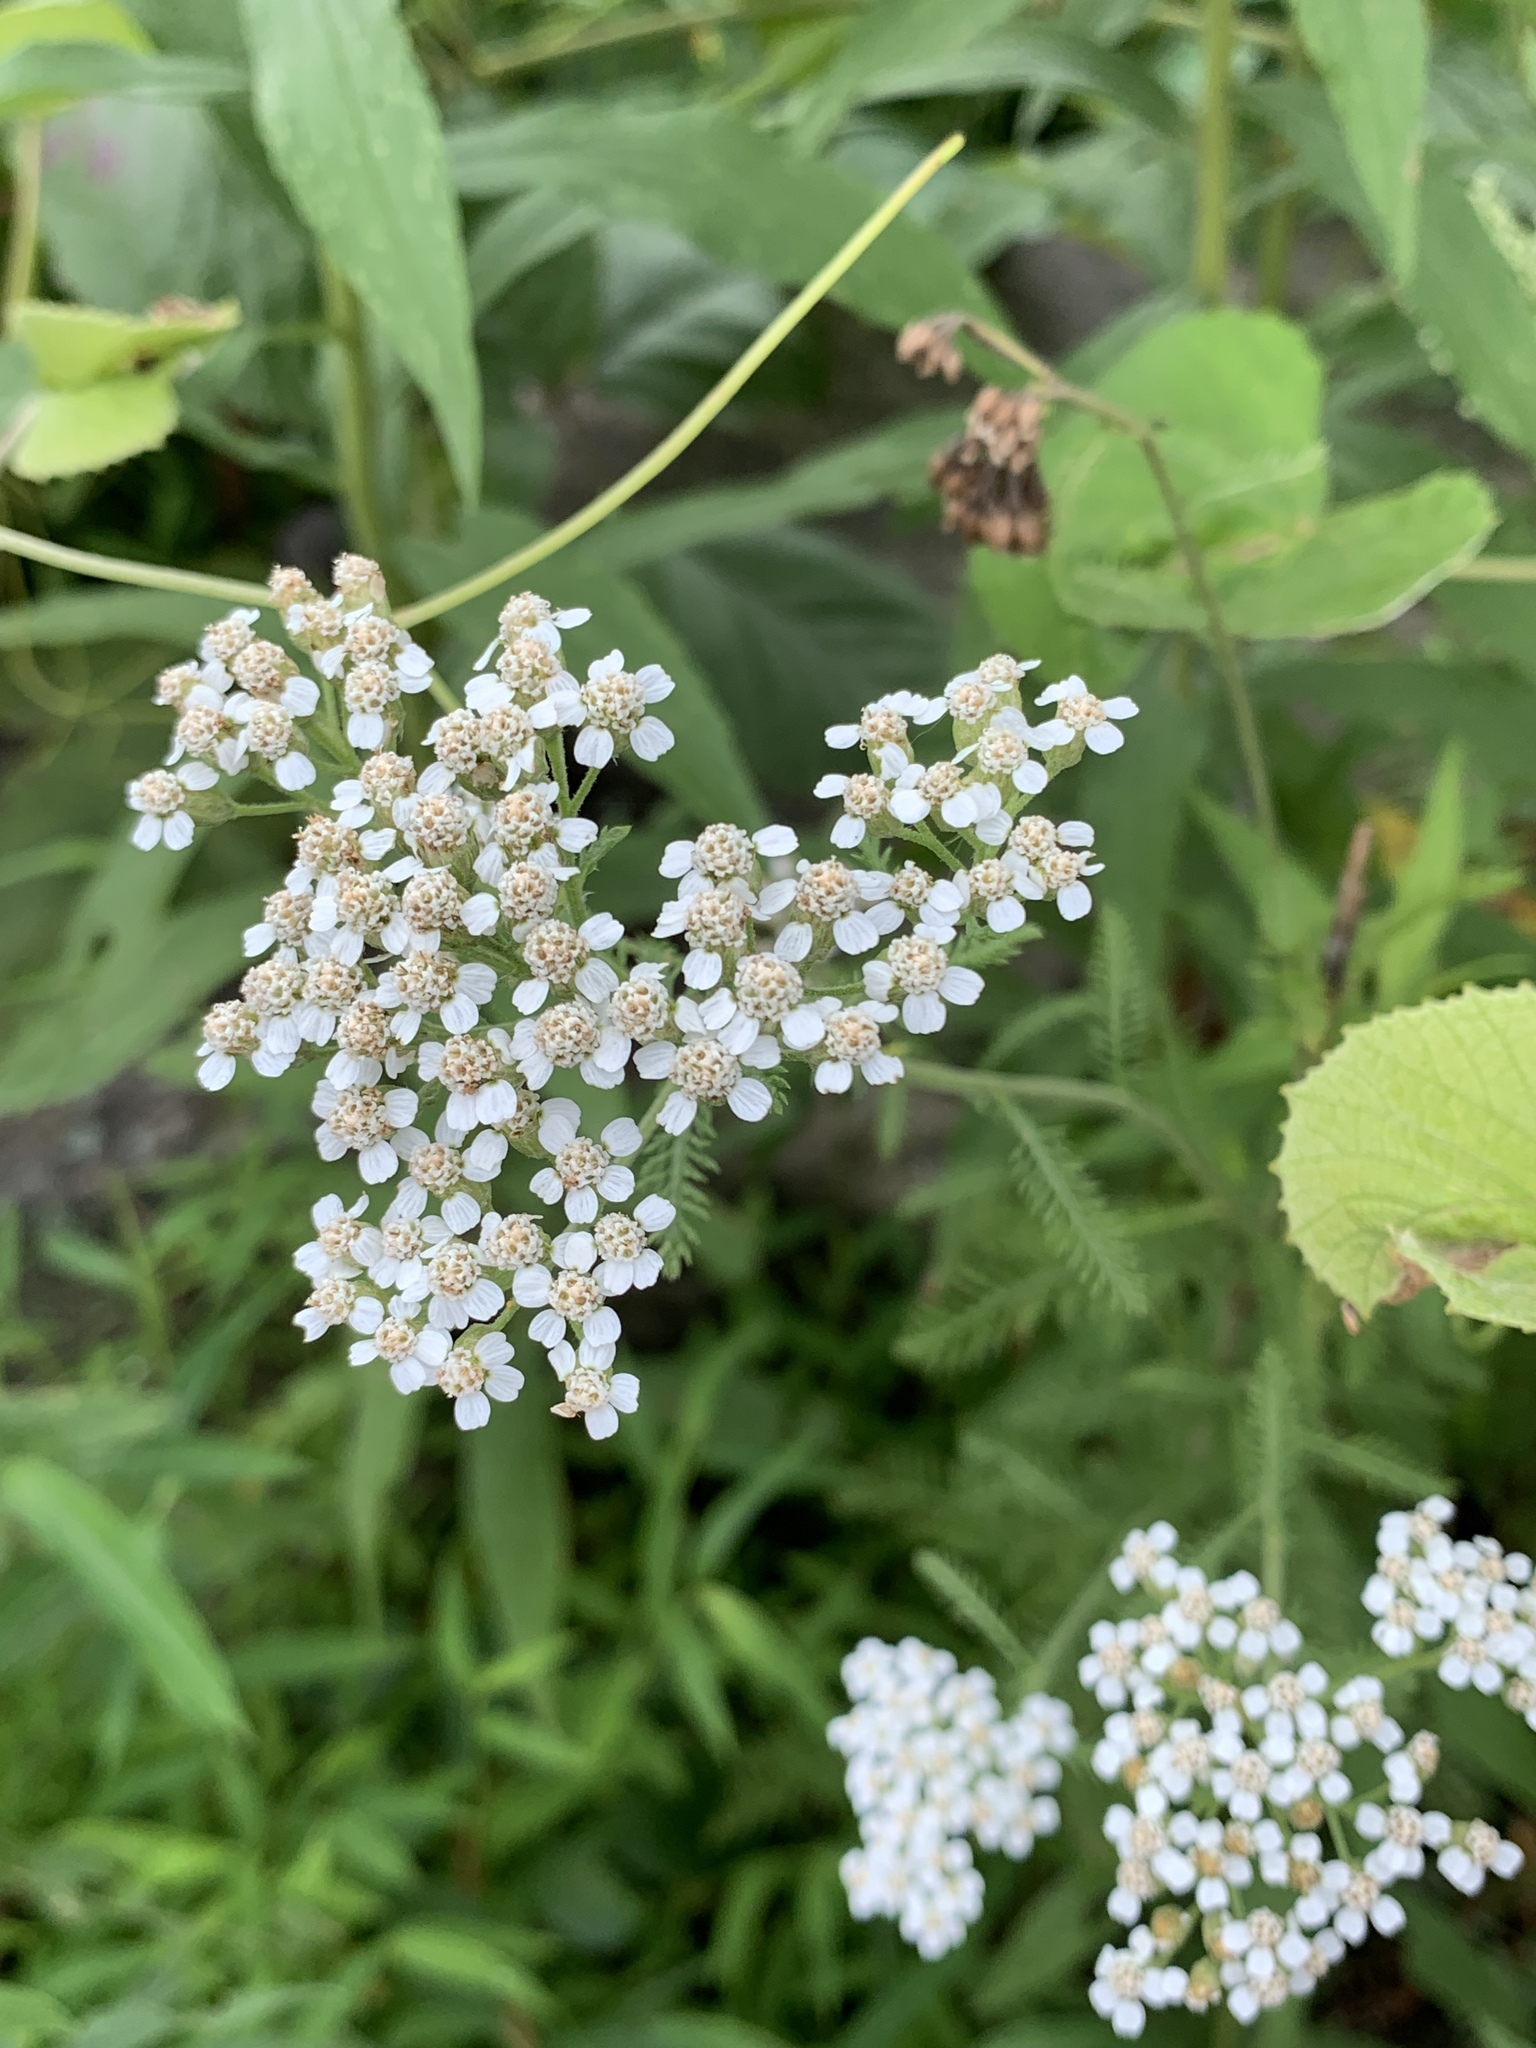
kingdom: Plantae
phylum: Tracheophyta
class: Magnoliopsida
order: Asterales
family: Asteraceae
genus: Achillea
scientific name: Achillea millefolium
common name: Yarrow
